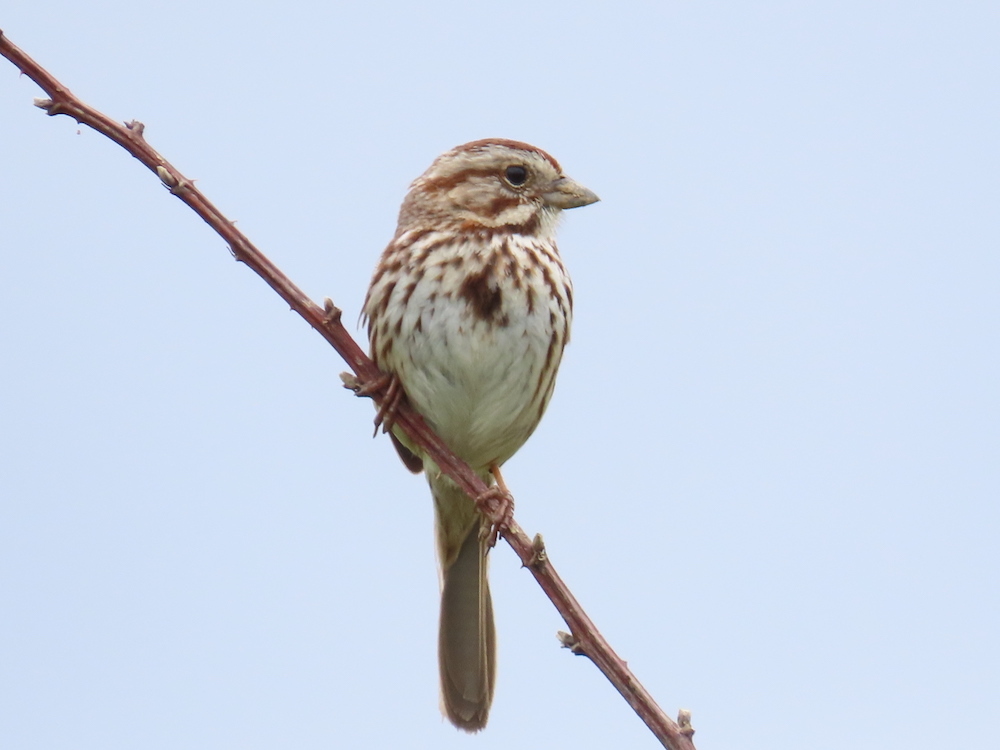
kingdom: Animalia
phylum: Chordata
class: Aves
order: Passeriformes
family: Passerellidae
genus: Melospiza
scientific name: Melospiza melodia
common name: Song sparrow
